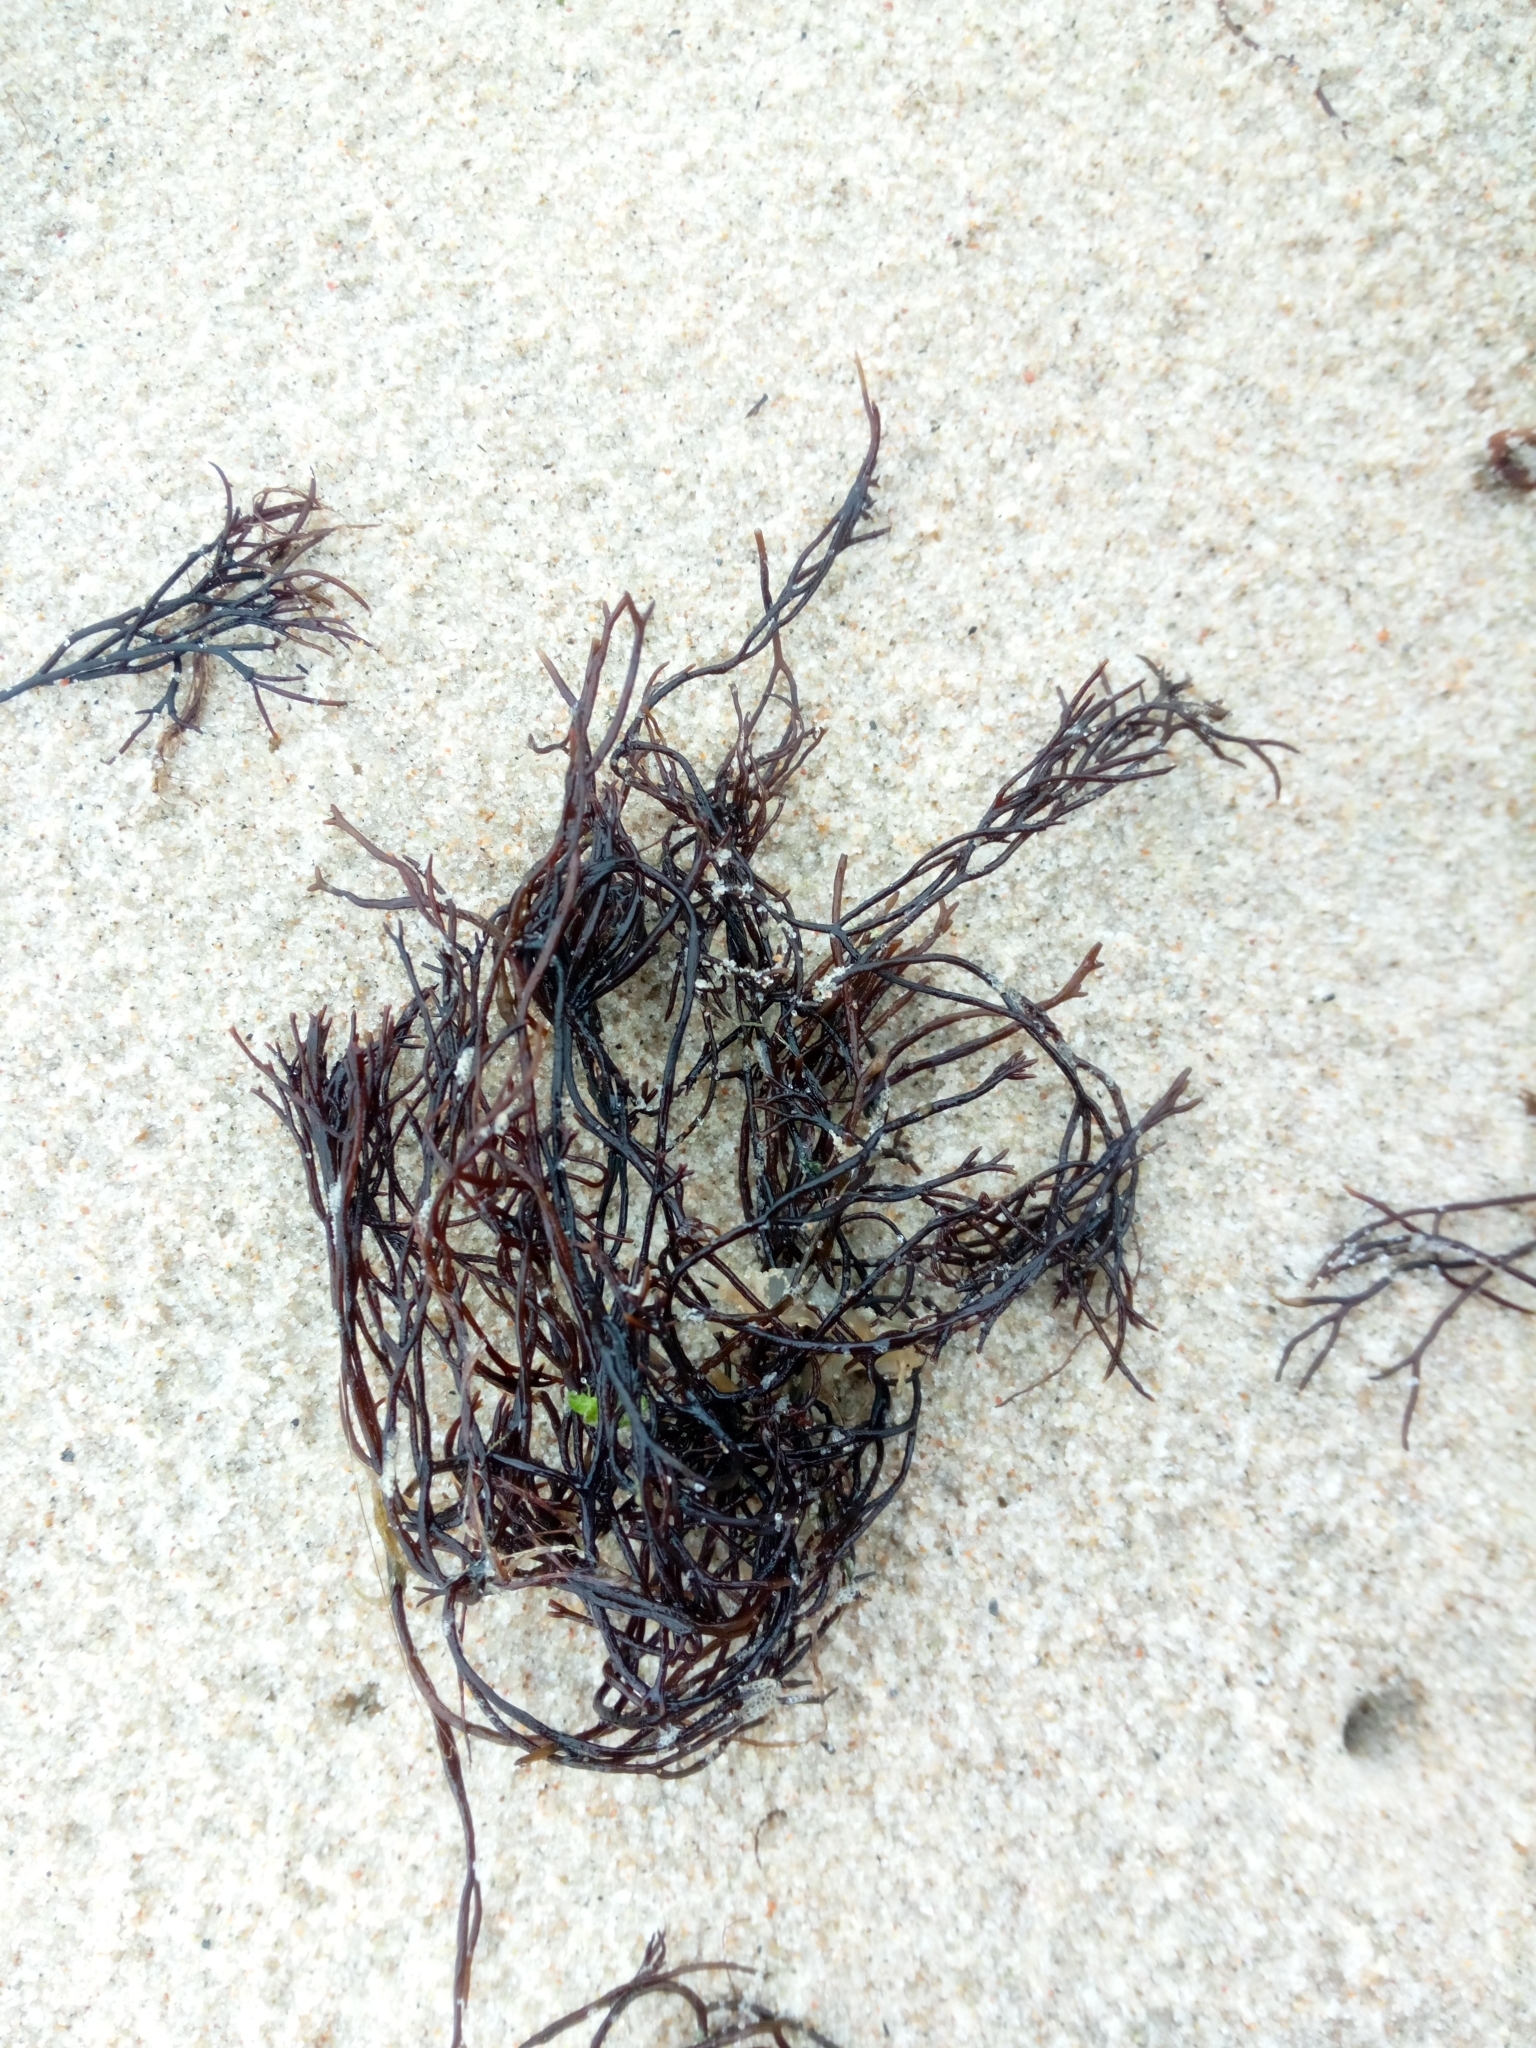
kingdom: Plantae
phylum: Rhodophyta
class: Florideophyceae
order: Gigartinales
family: Furcellariaceae
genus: Furcellaria
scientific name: Furcellaria lumbricalis
